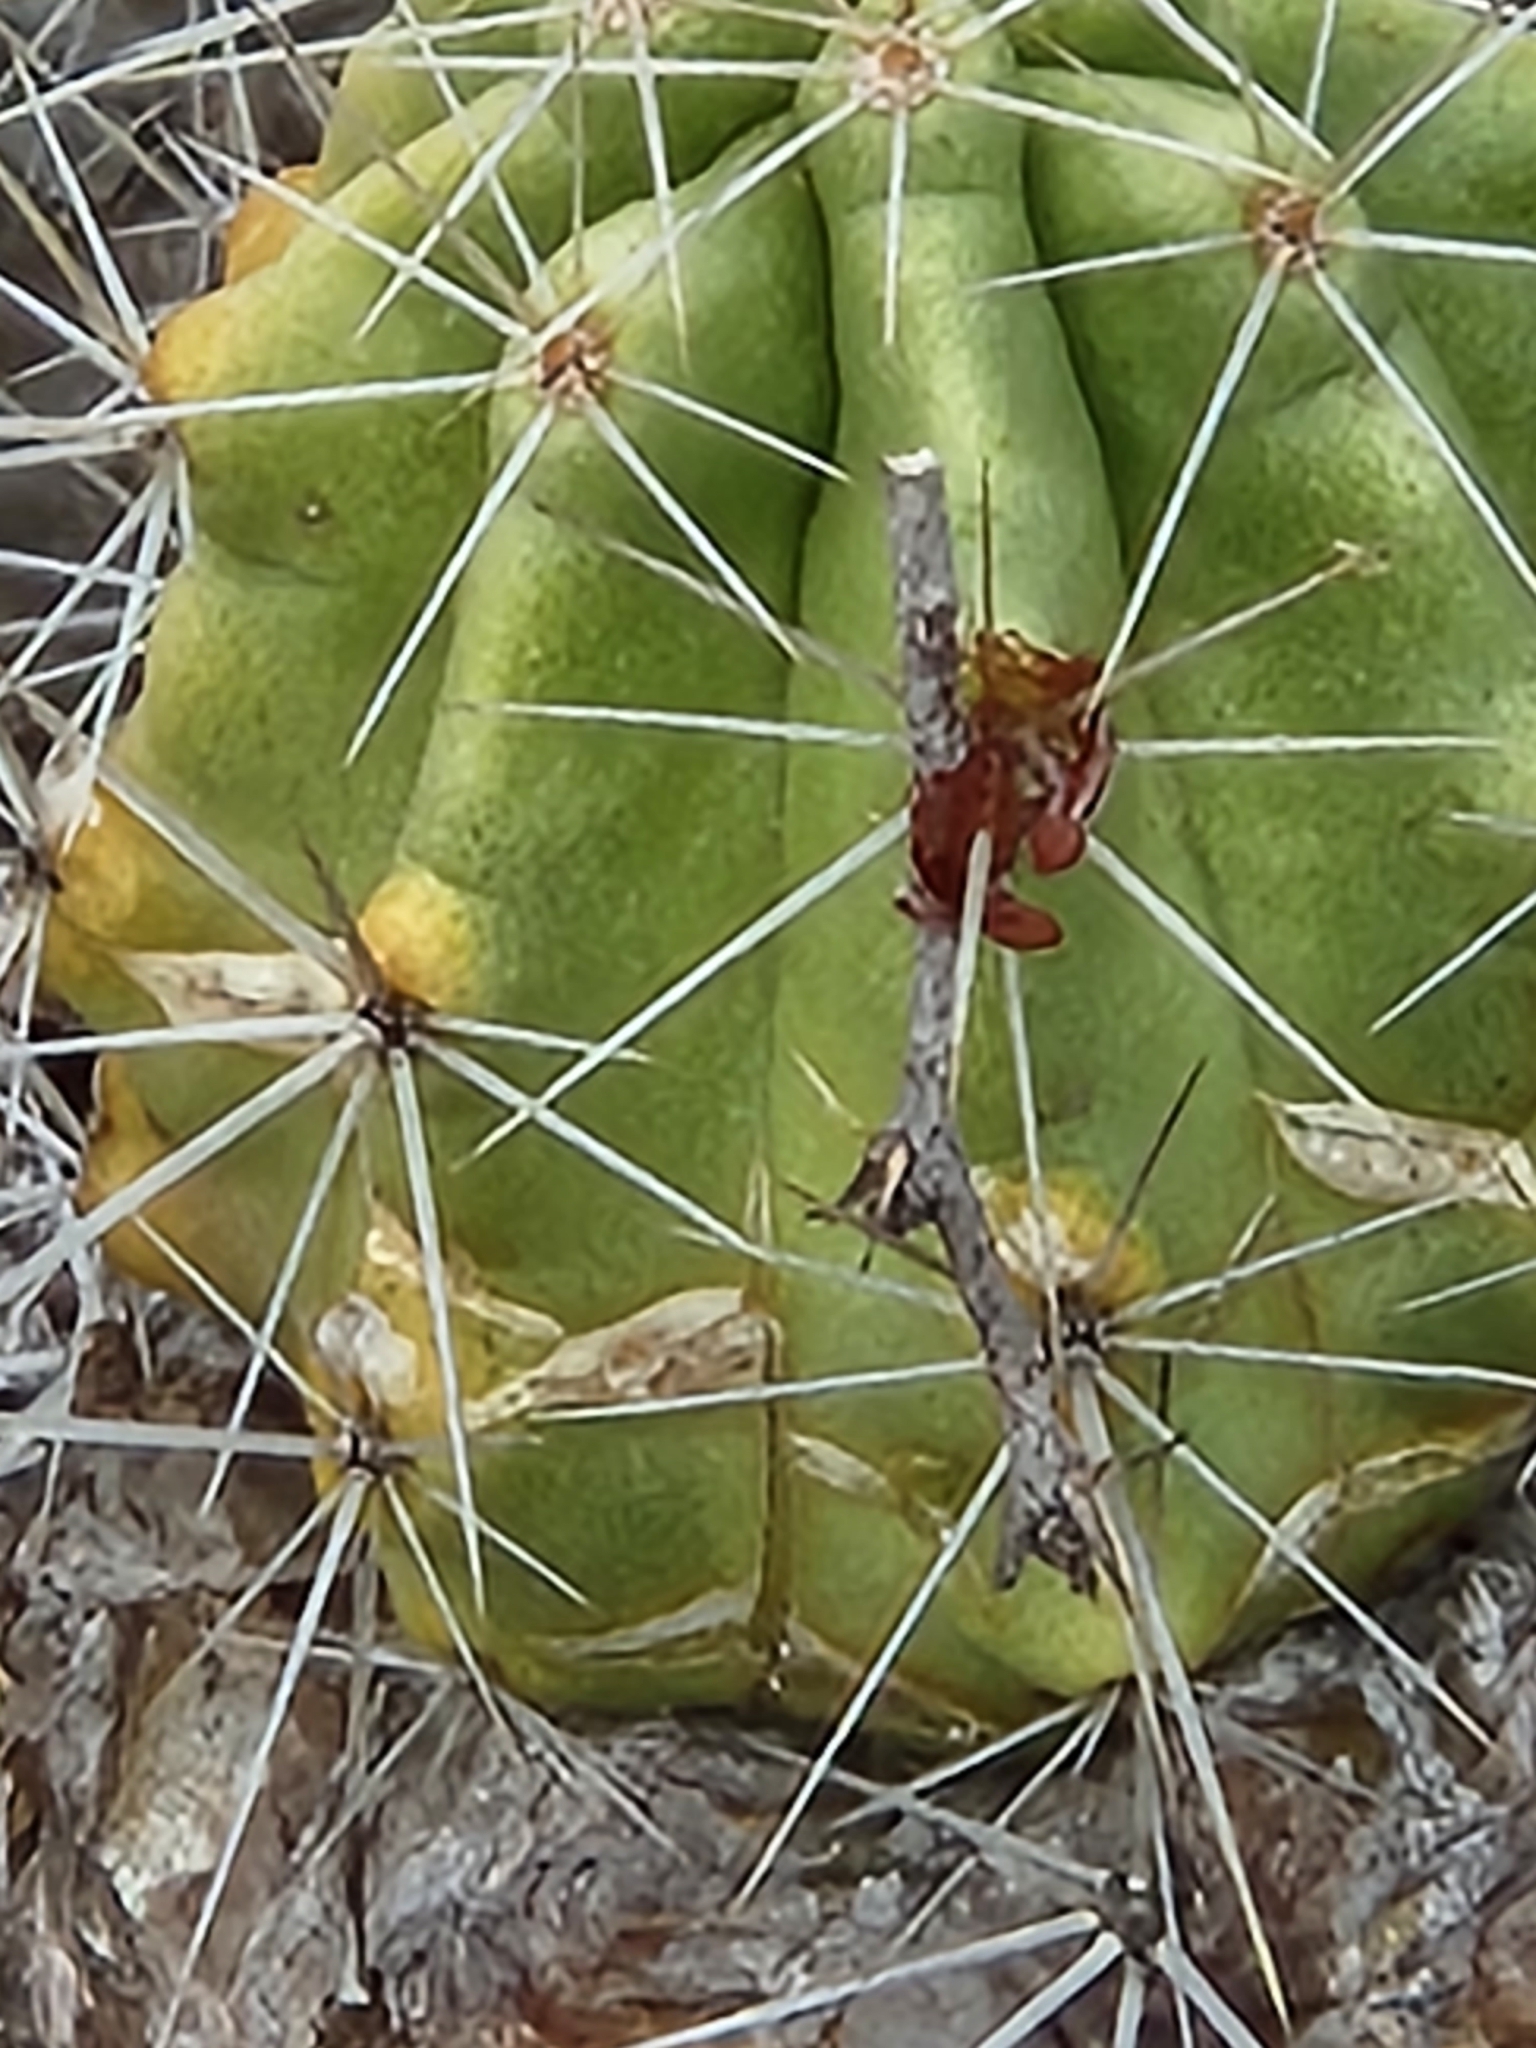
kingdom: Plantae
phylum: Tracheophyta
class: Magnoliopsida
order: Caryophyllales
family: Cactaceae
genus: Echinocereus
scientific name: Echinocereus enneacanthus
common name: Pitaya
